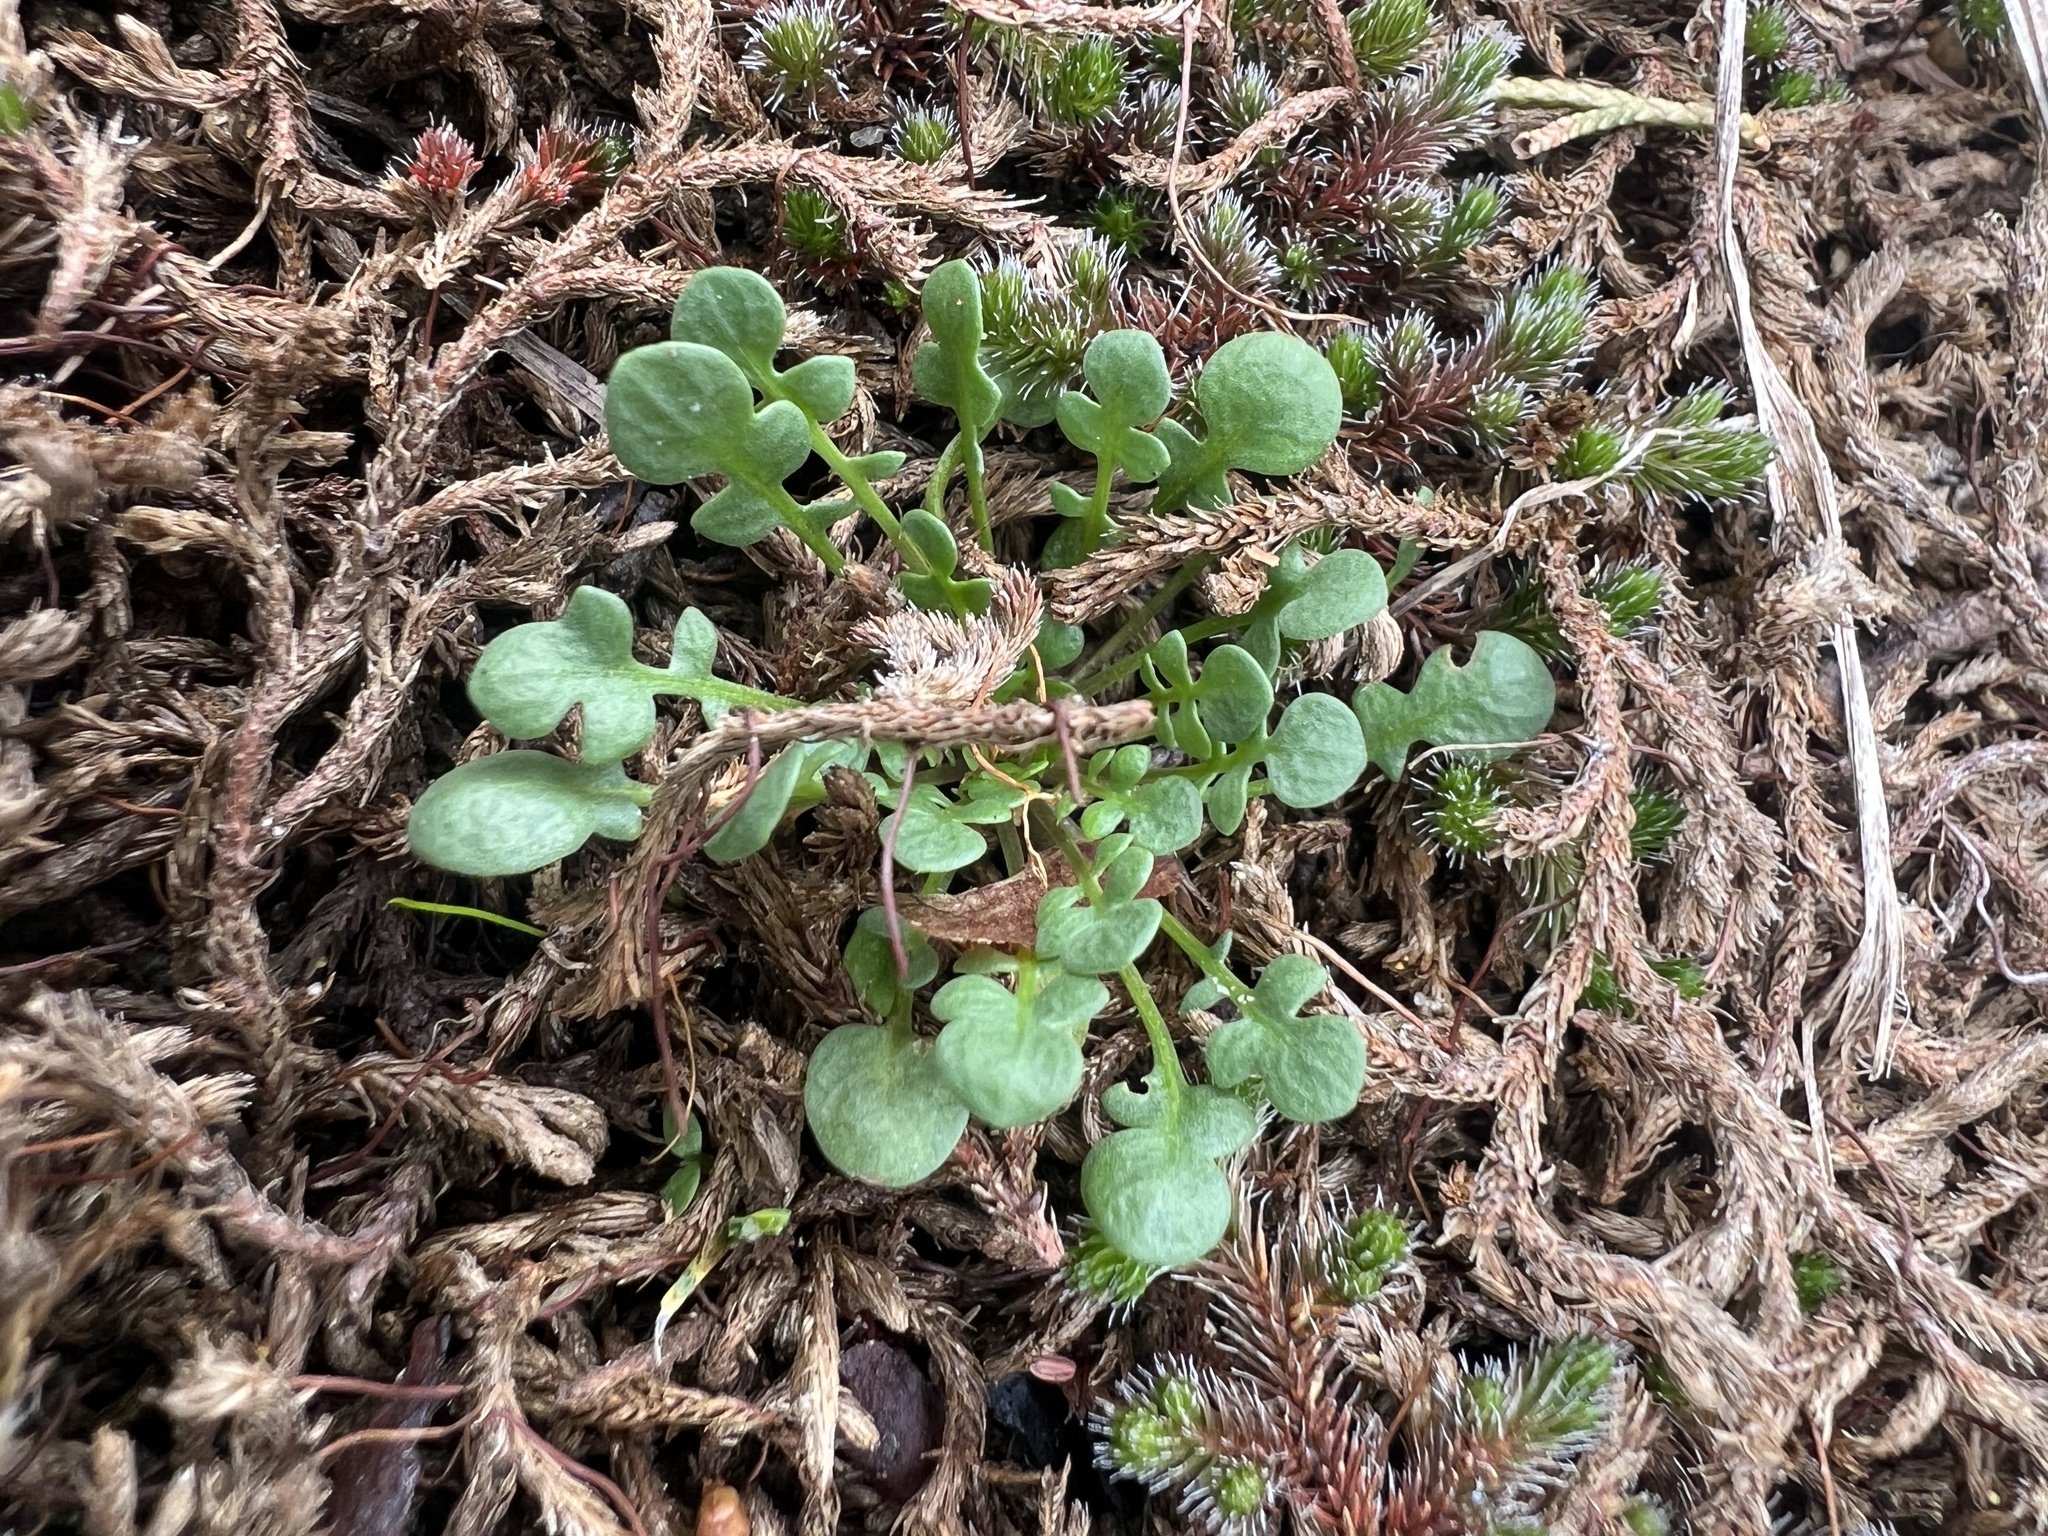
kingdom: Plantae
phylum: Tracheophyta
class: Magnoliopsida
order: Brassicales
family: Brassicaceae
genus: Teesdalia
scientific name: Teesdalia nudicaulis
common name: Shepherd's cress
